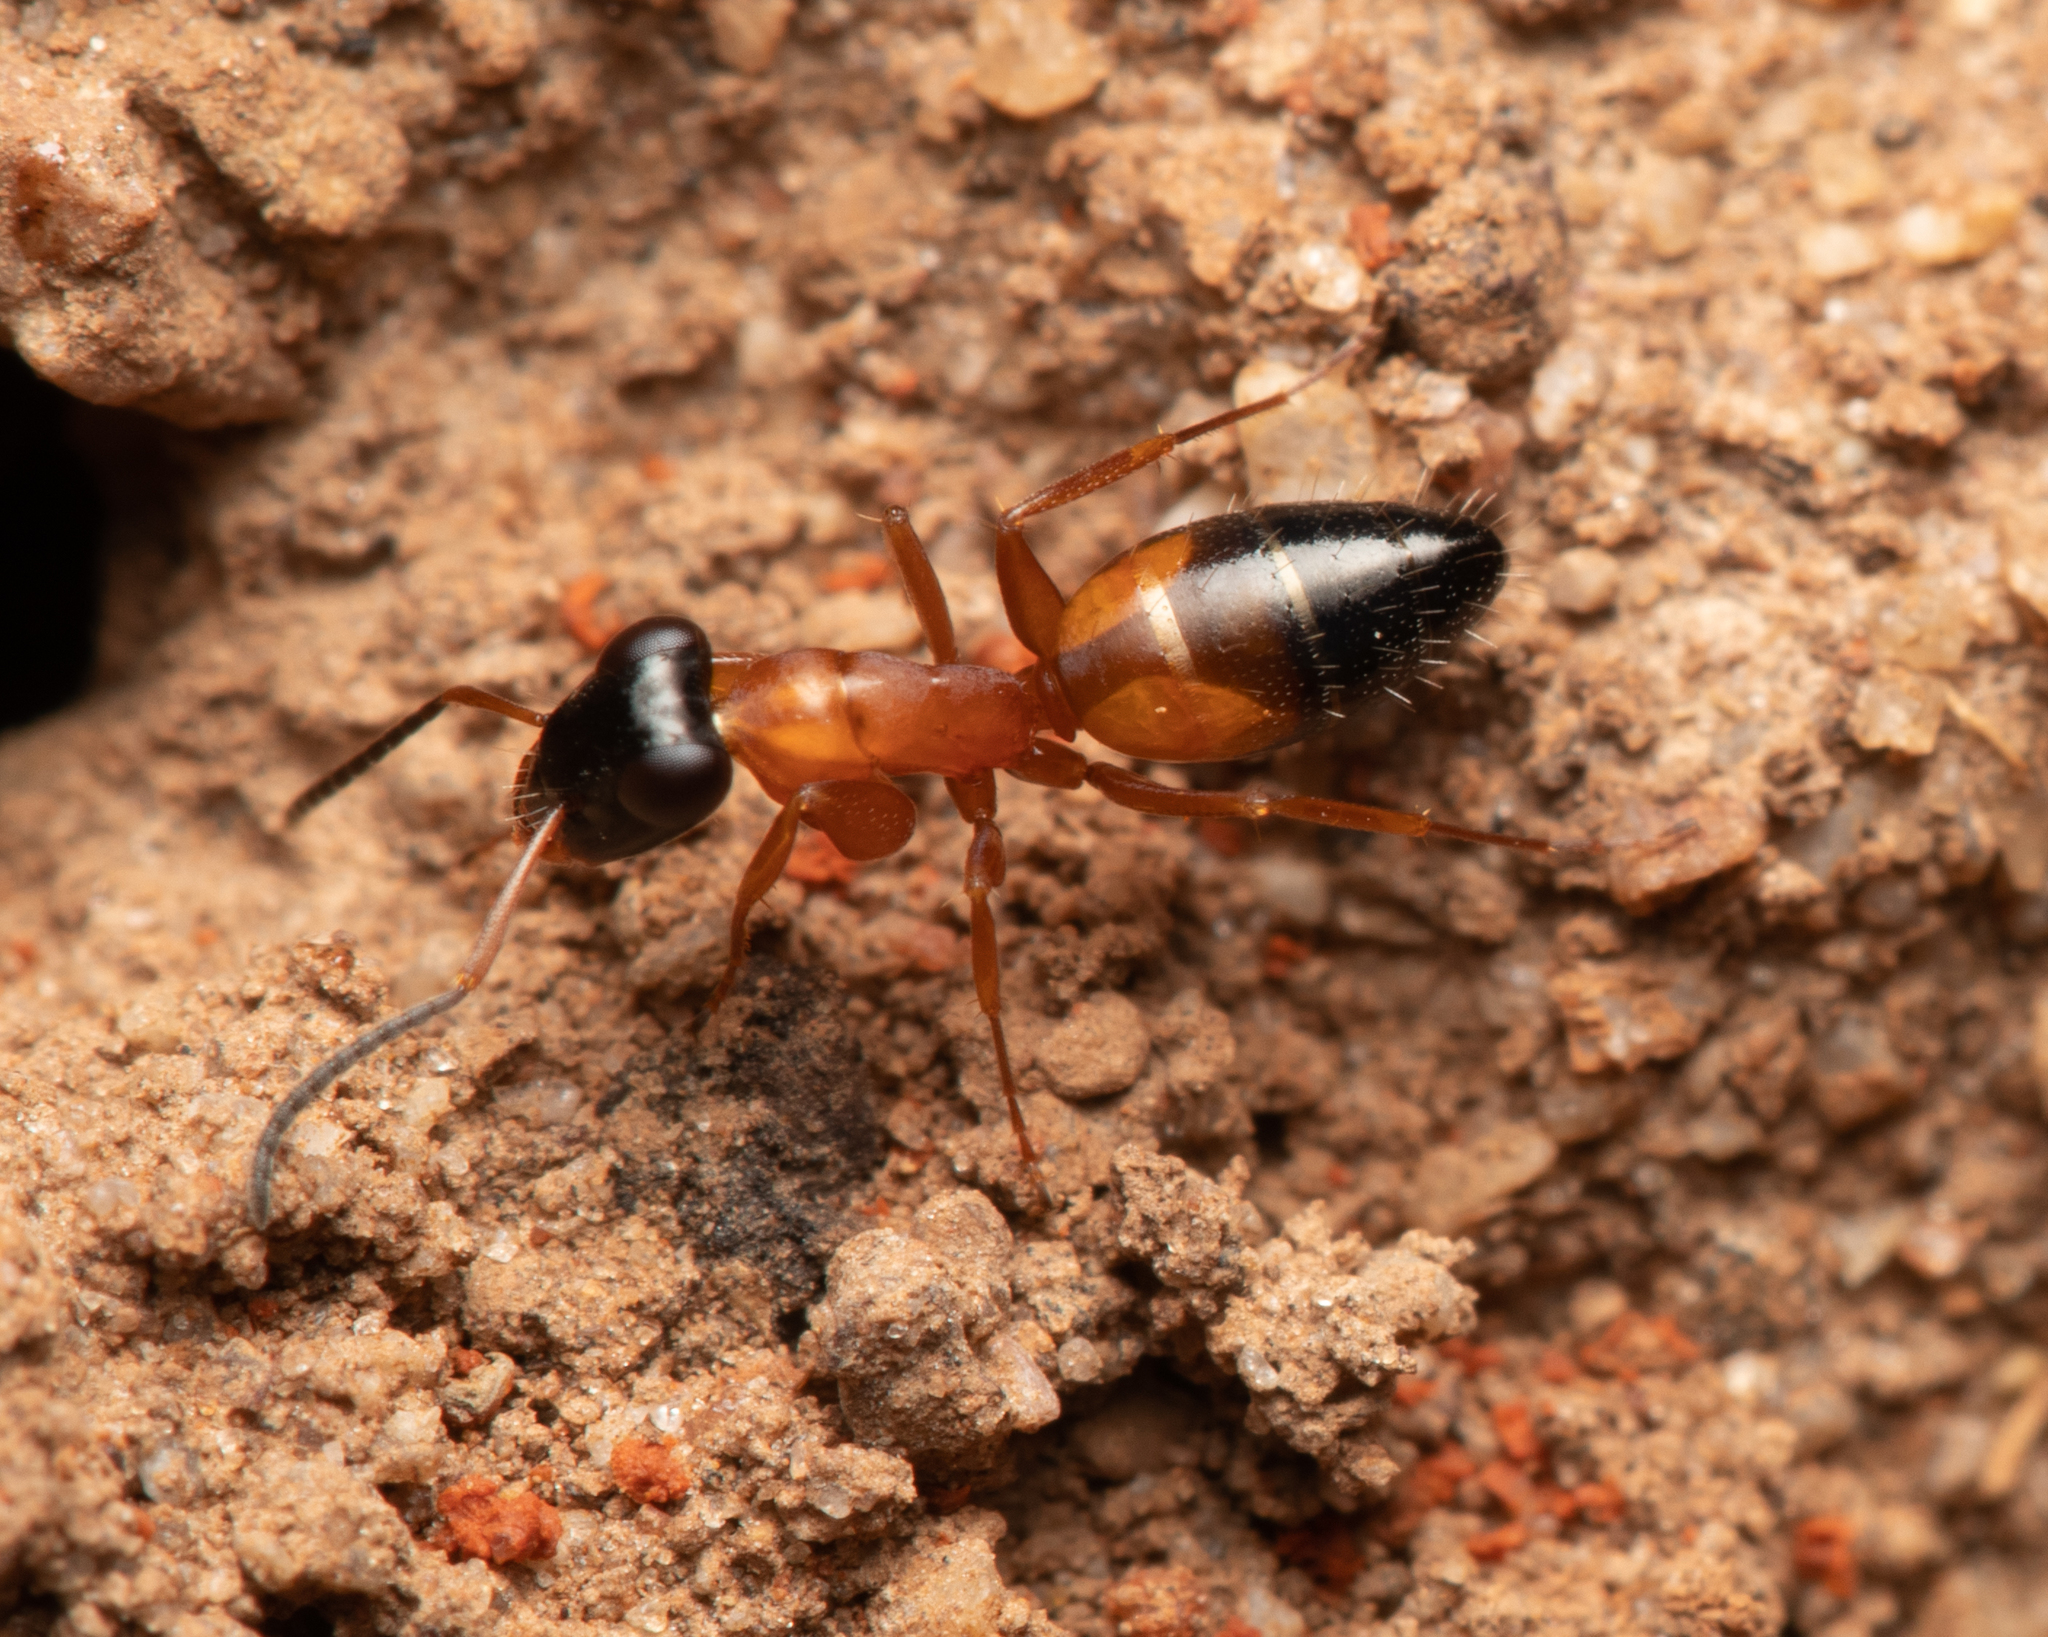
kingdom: Animalia
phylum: Arthropoda
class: Insecta
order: Hymenoptera
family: Formicidae
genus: Opisthopsis
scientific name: Opisthopsis rufithorax
